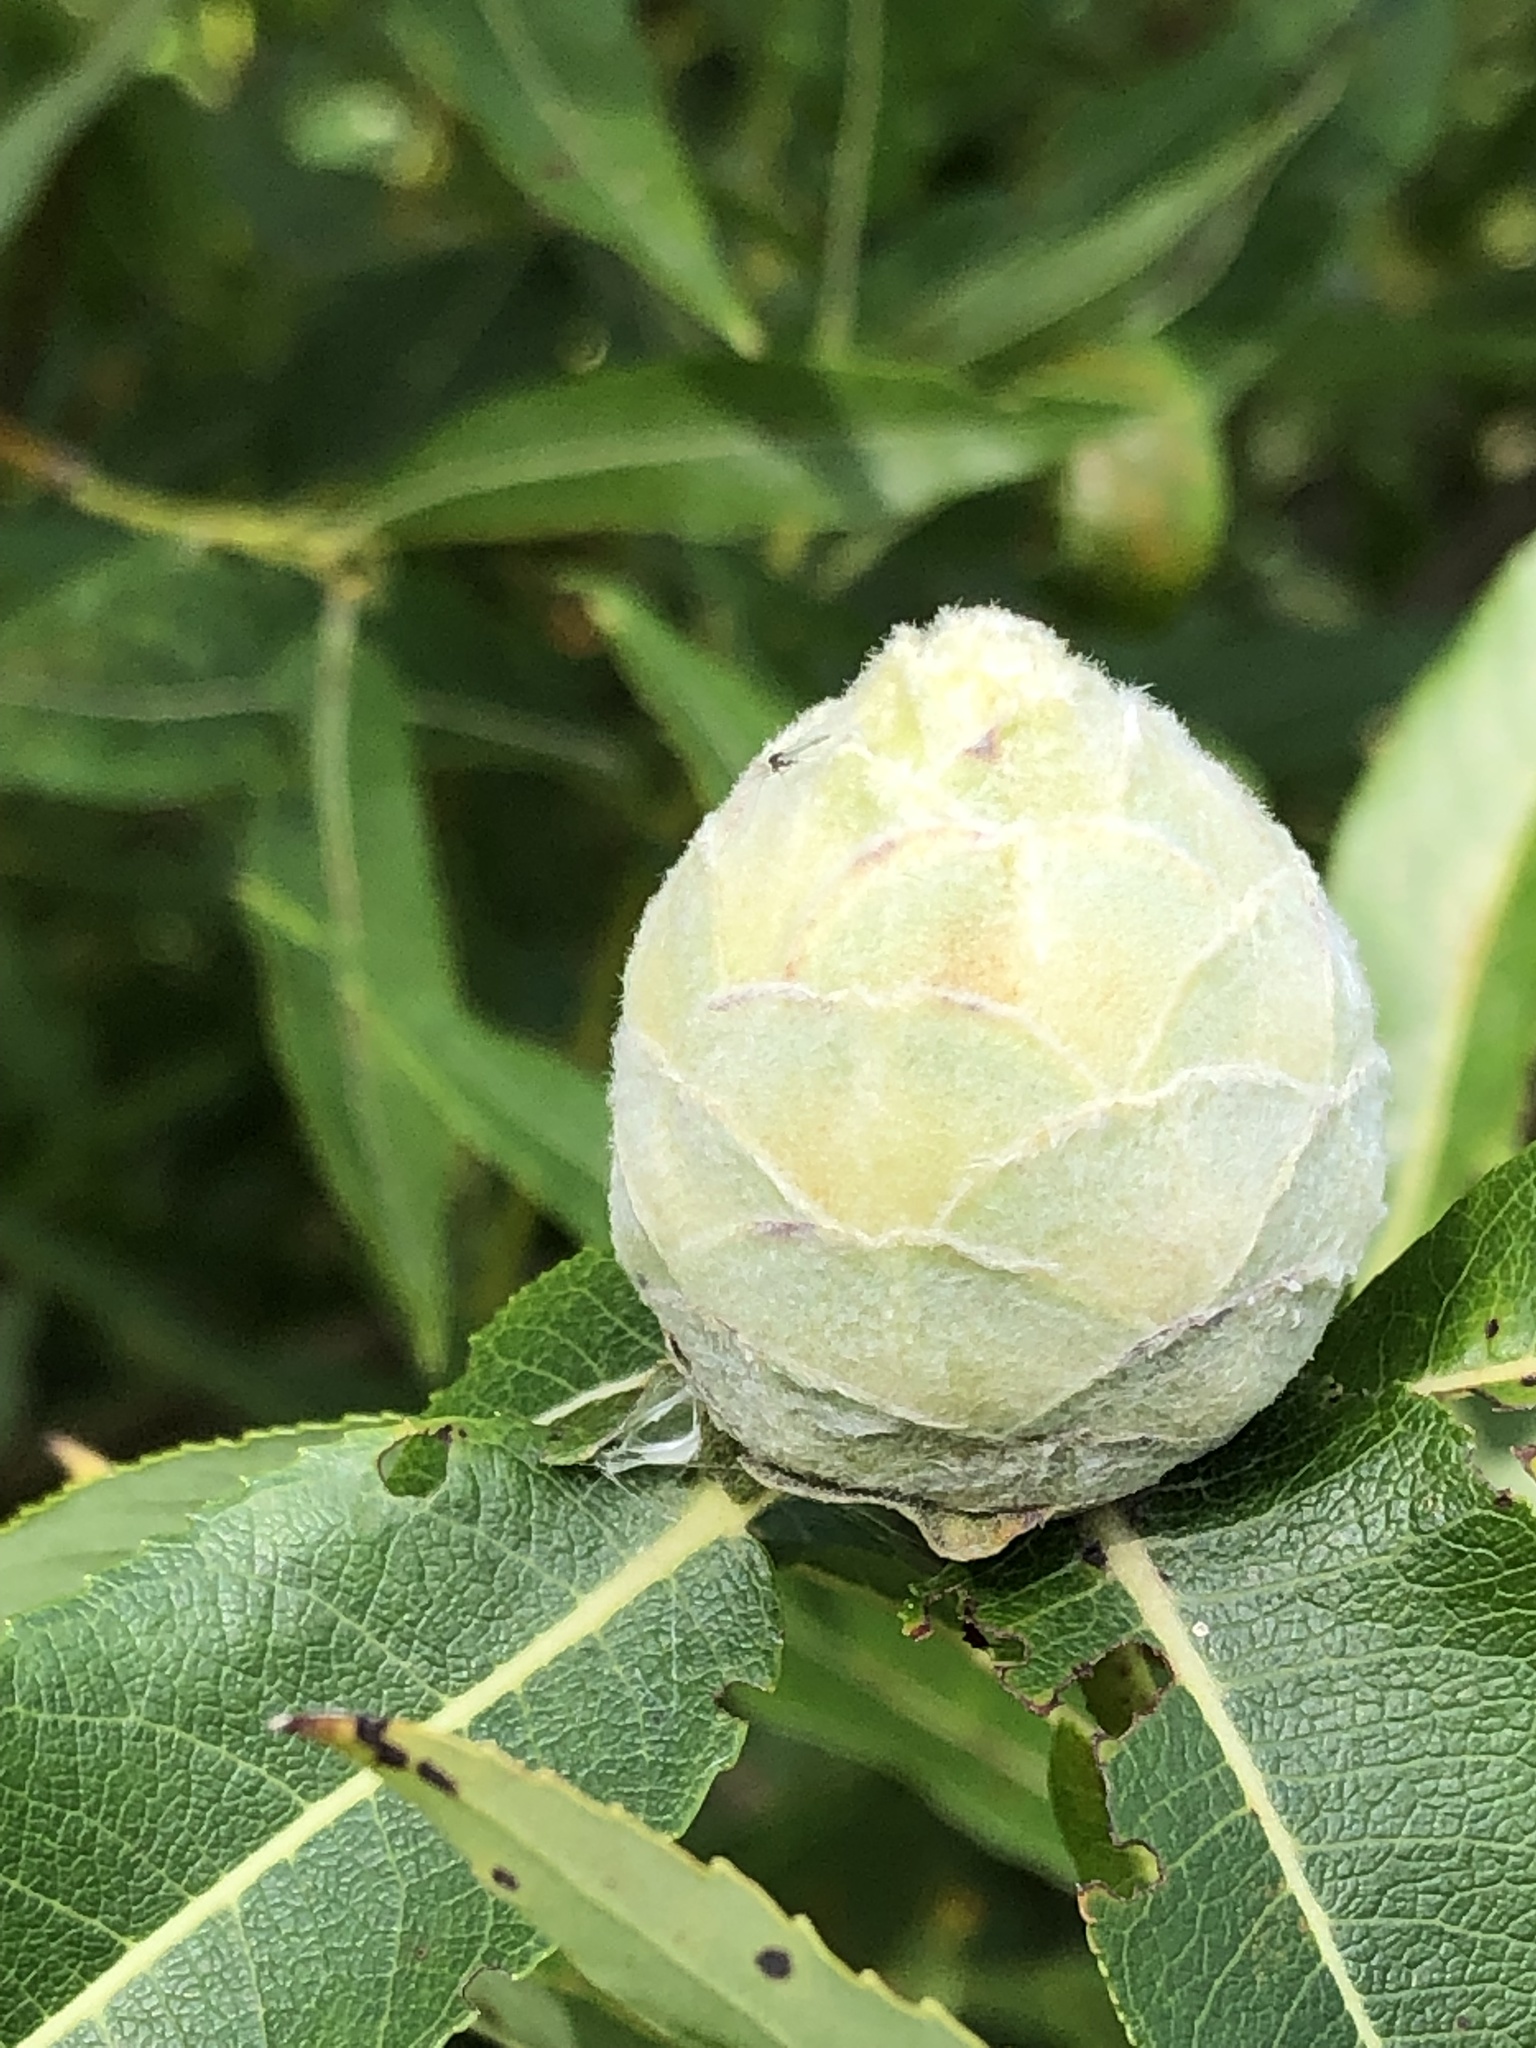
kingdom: Animalia
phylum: Arthropoda
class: Insecta
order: Diptera
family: Cecidomyiidae
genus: Rabdophaga
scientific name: Rabdophaga strobiloides
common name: Willow pinecone gall midge
